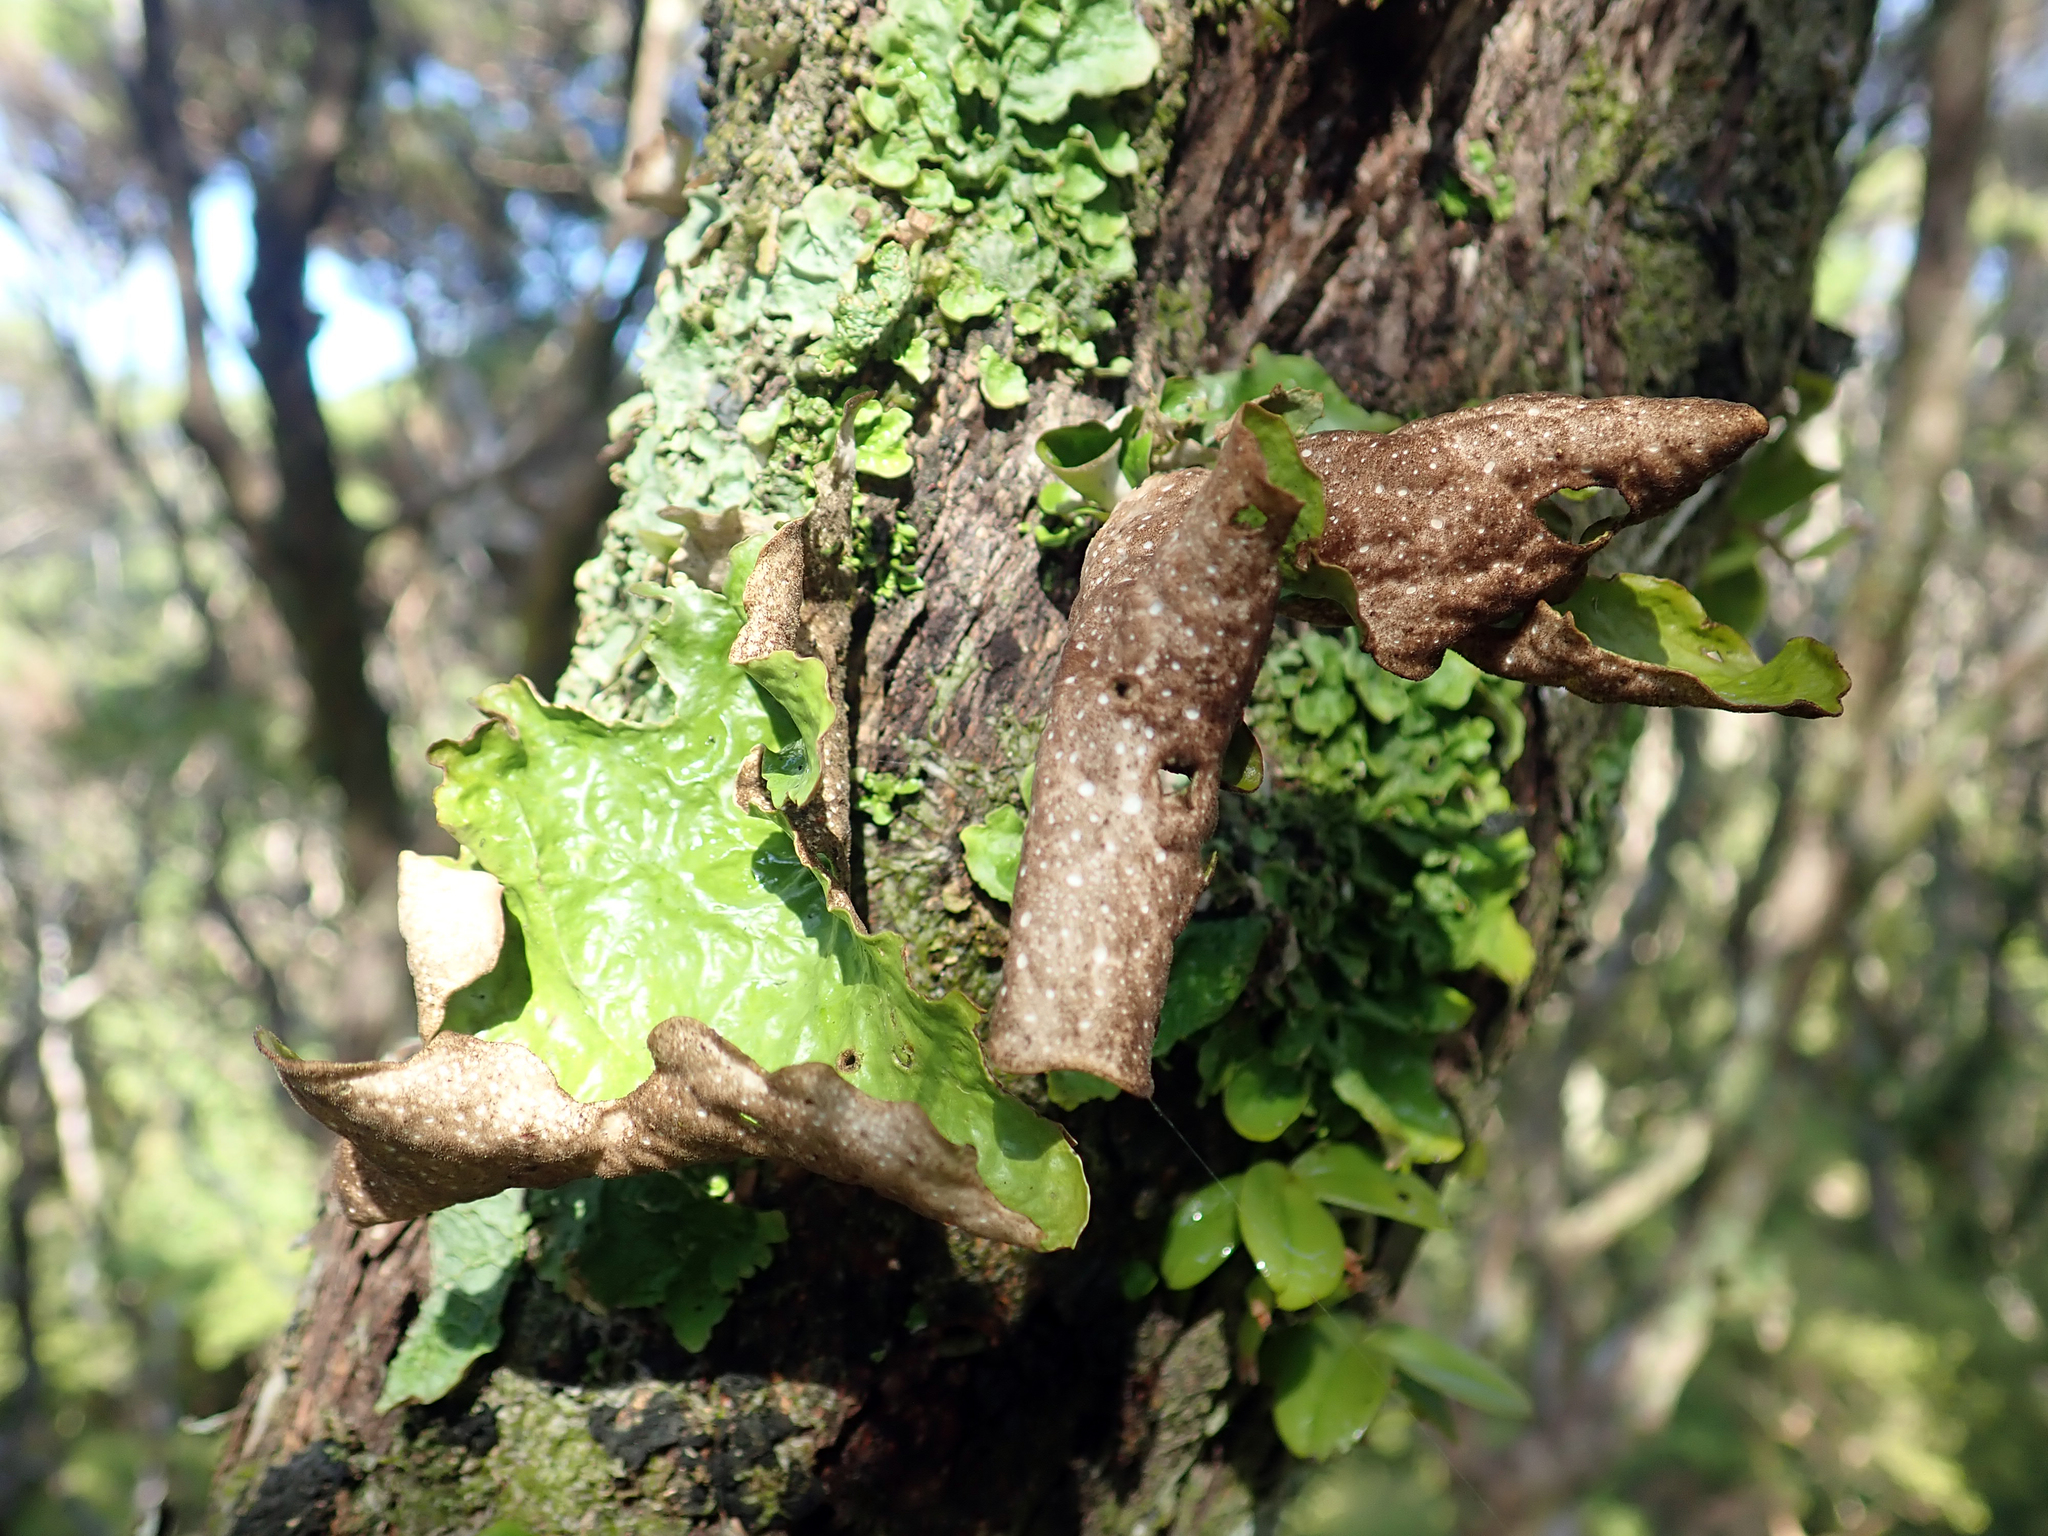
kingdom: Fungi
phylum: Ascomycota
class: Lecanoromycetes
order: Peltigerales
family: Lobariaceae
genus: Sticta
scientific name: Sticta latifrons
